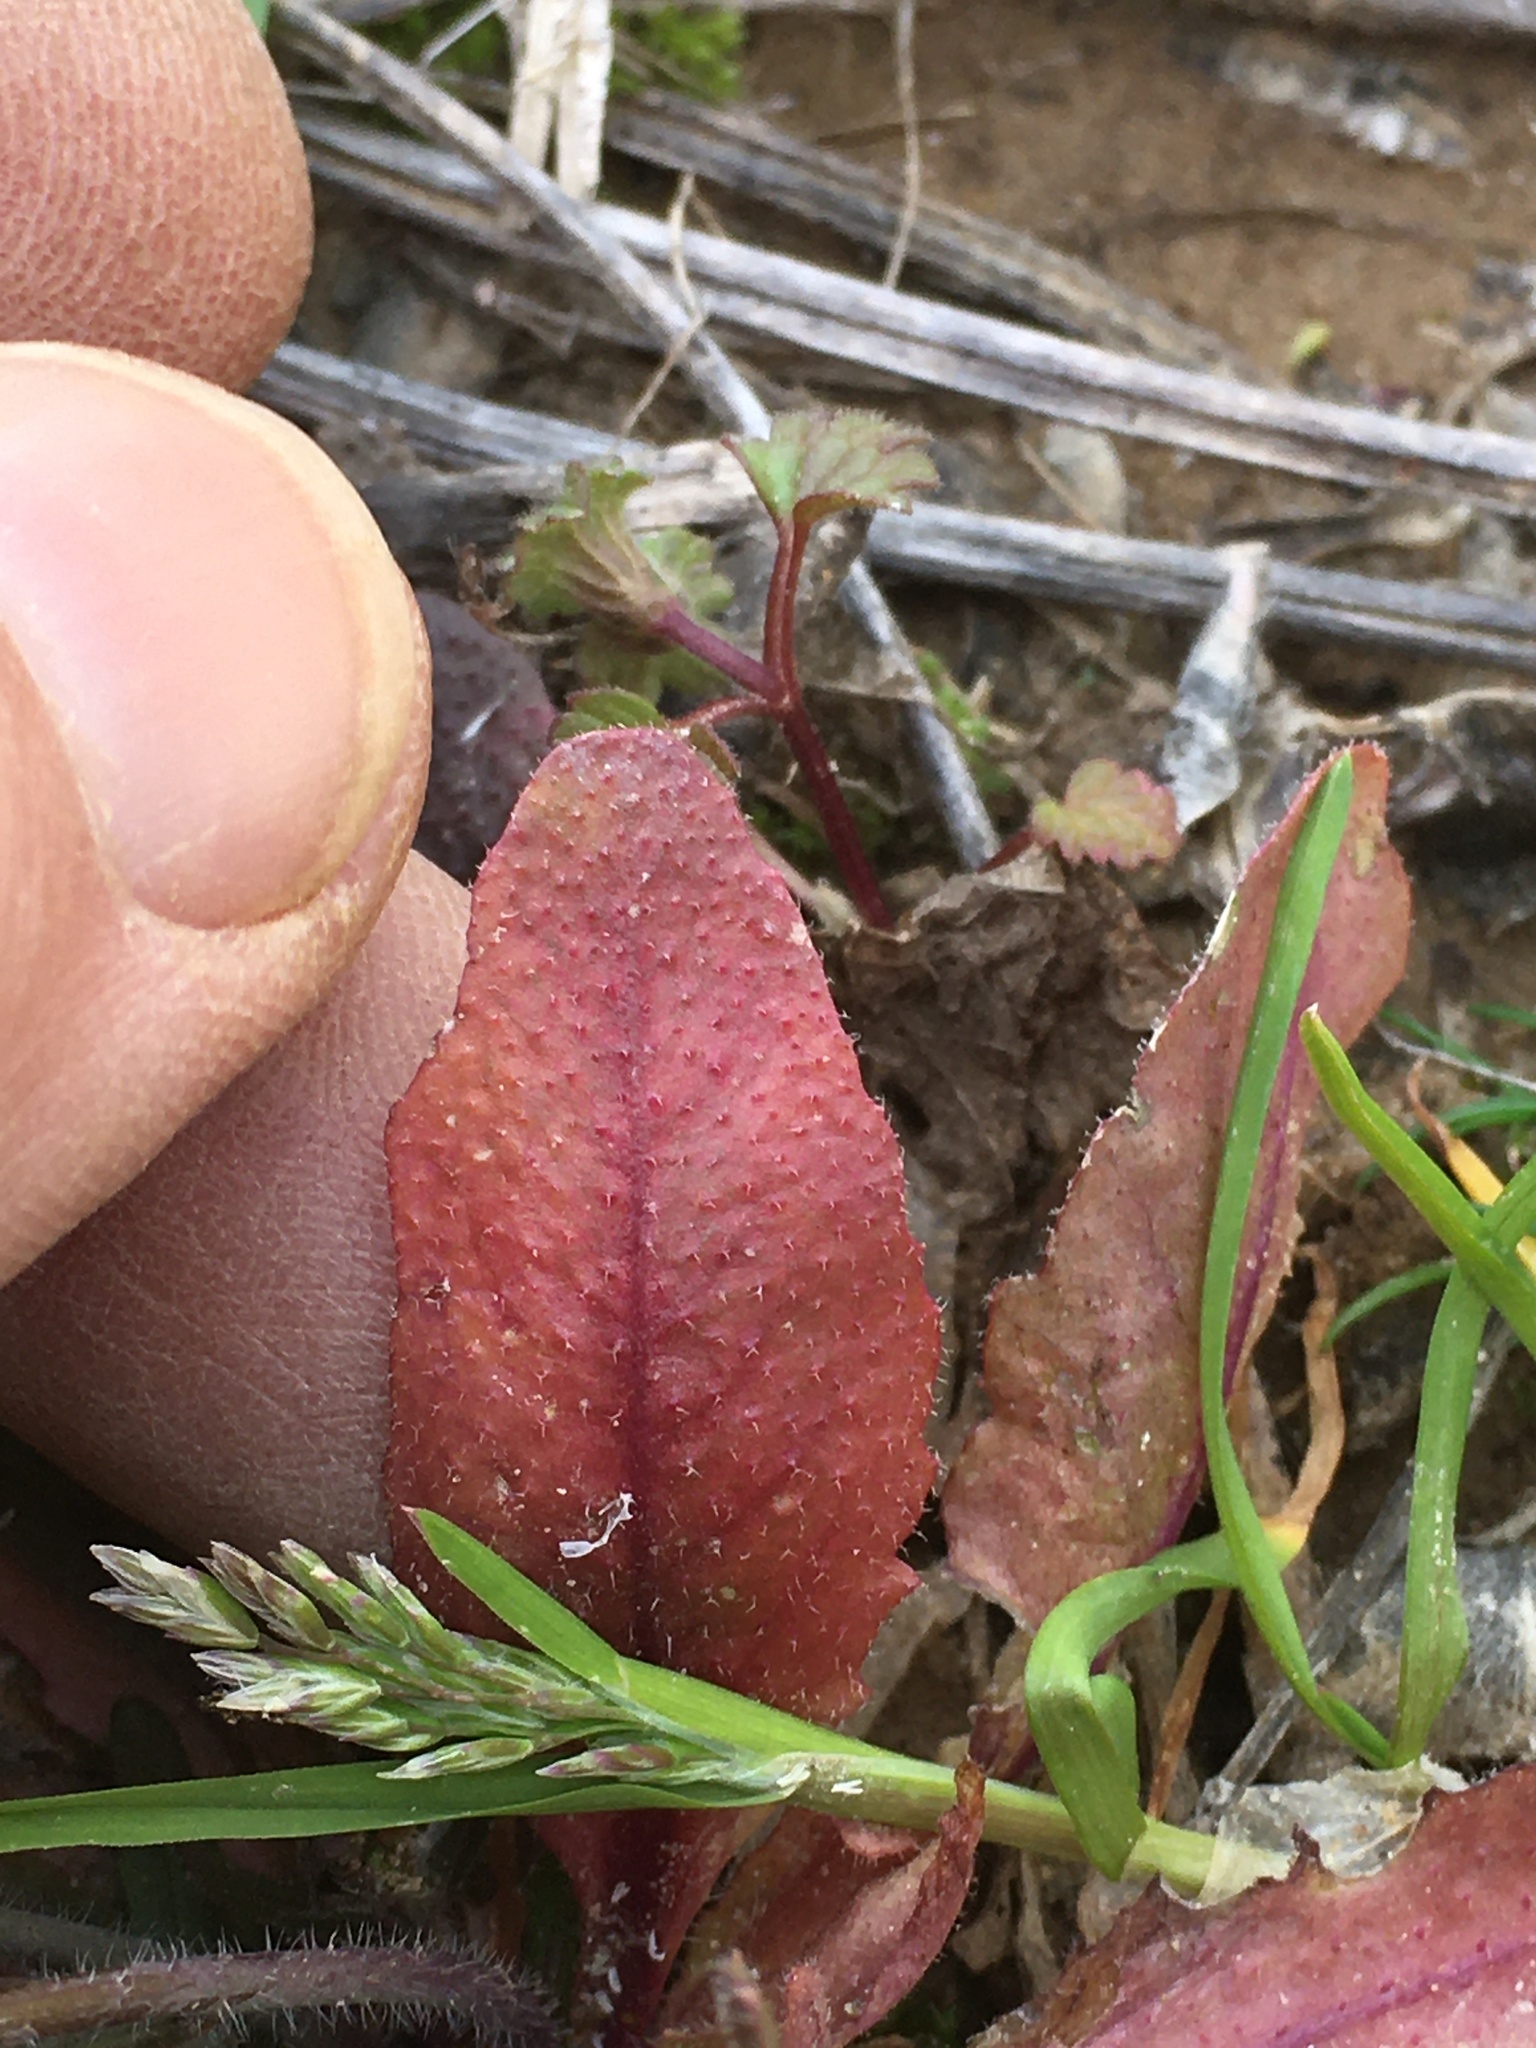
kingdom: Plantae
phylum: Tracheophyta
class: Magnoliopsida
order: Brassicales
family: Brassicaceae
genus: Arabidopsis
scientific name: Arabidopsis thaliana
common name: Thale cress
